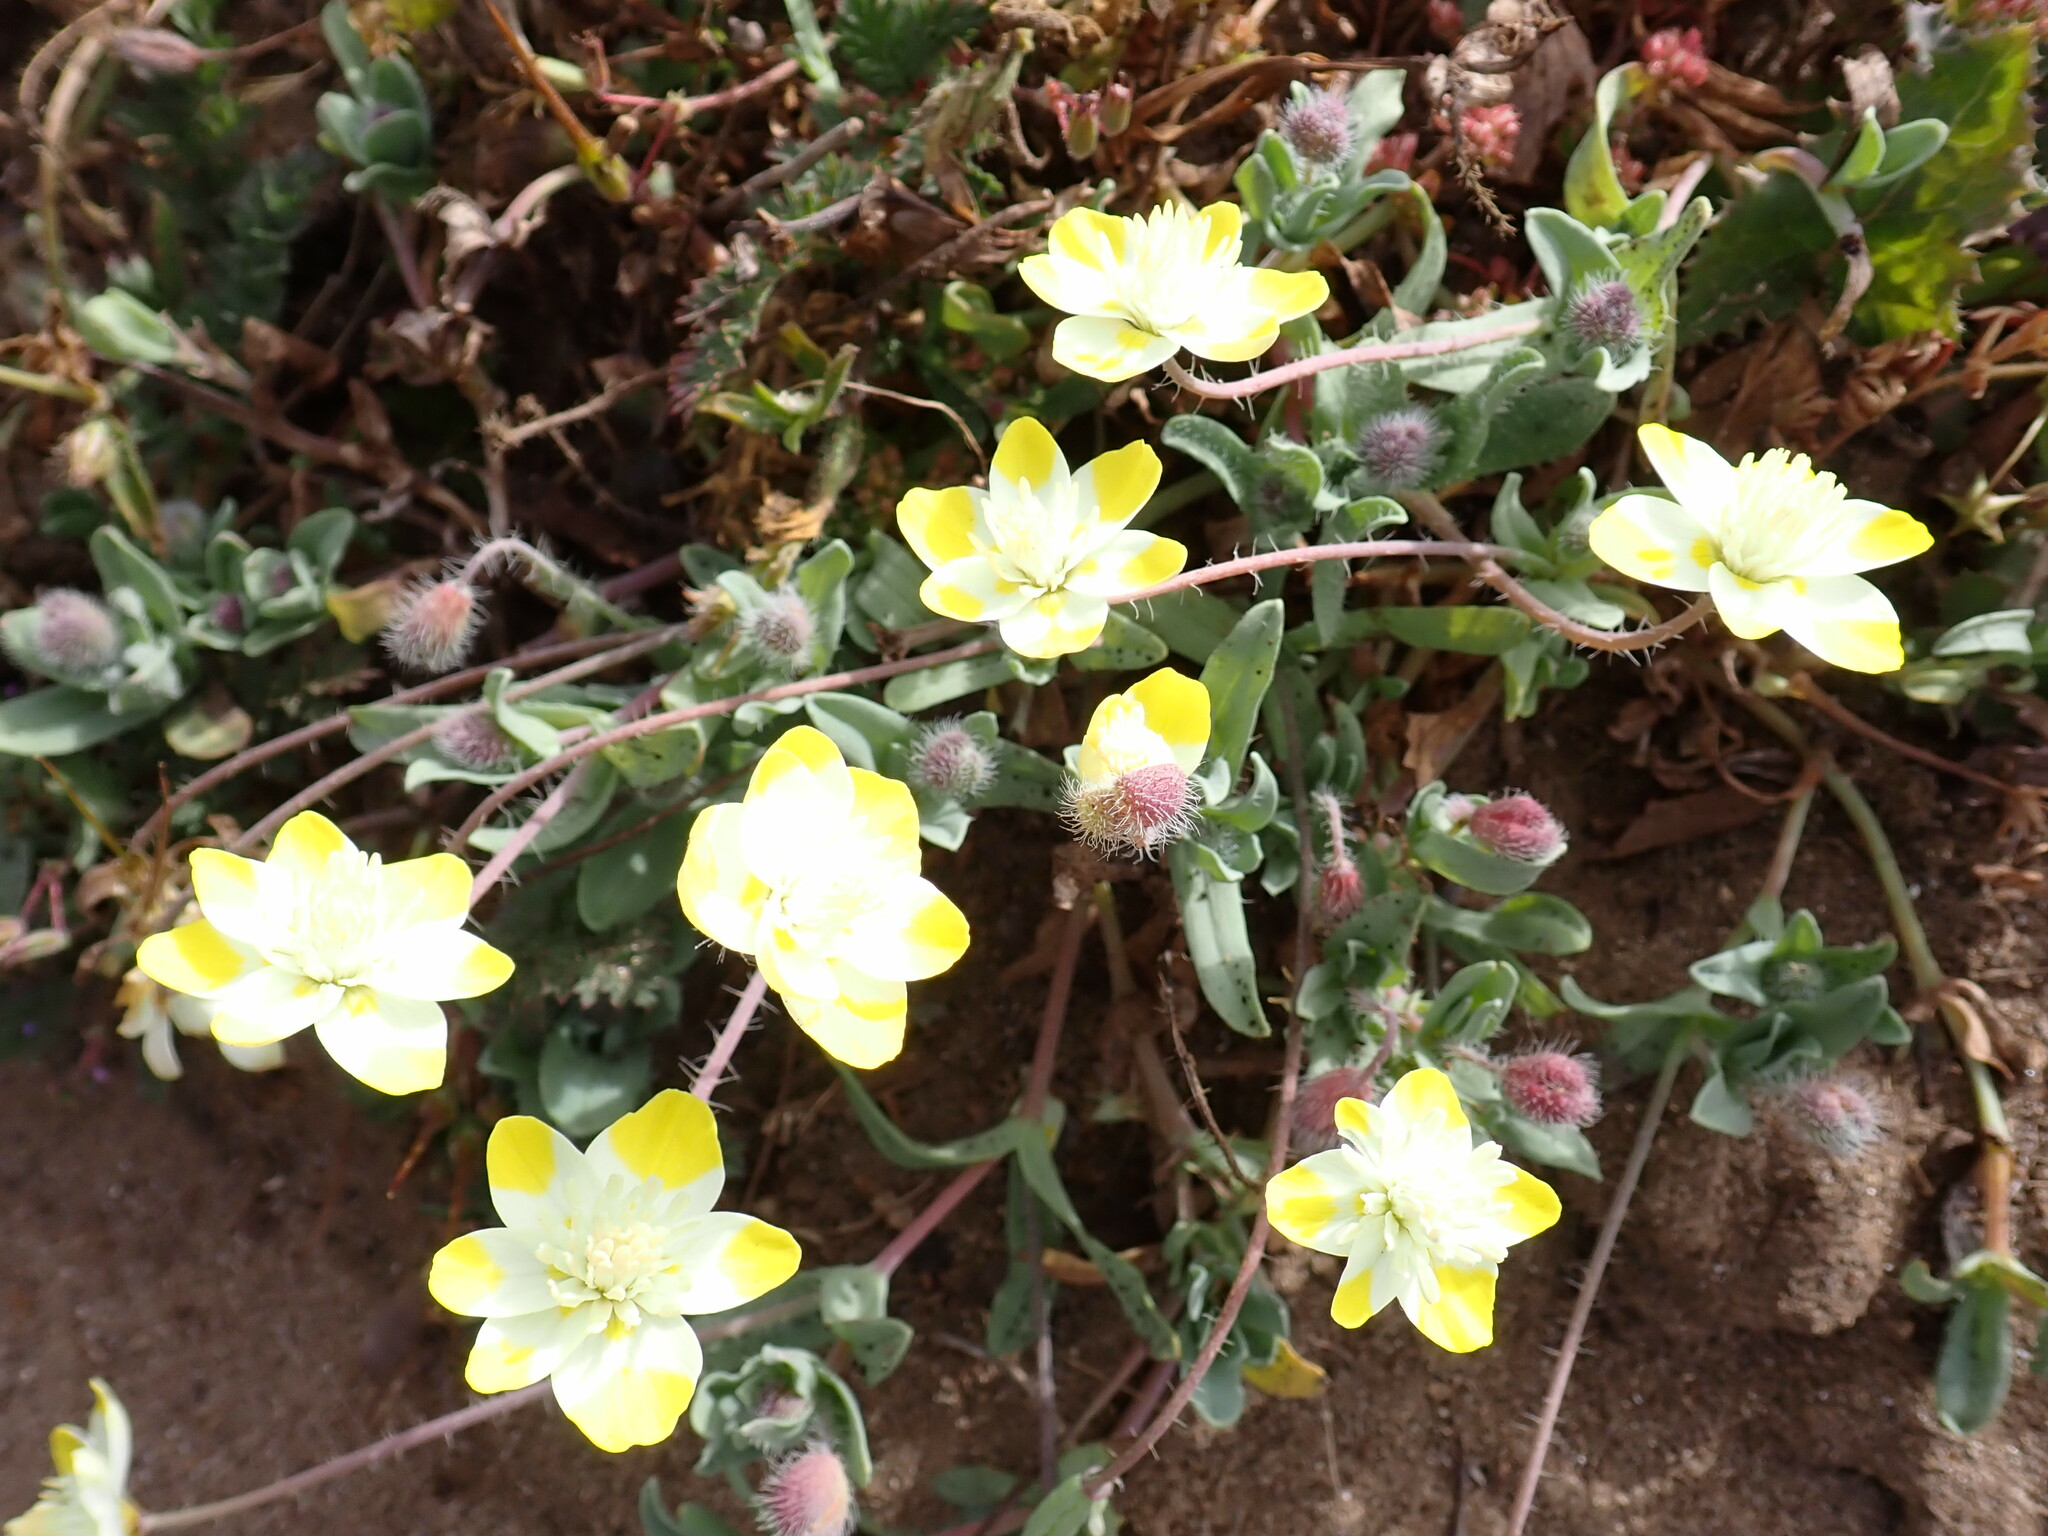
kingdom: Plantae
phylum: Tracheophyta
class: Magnoliopsida
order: Ranunculales
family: Papaveraceae
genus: Platystemon
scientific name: Platystemon californicus
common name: Cream-cups
